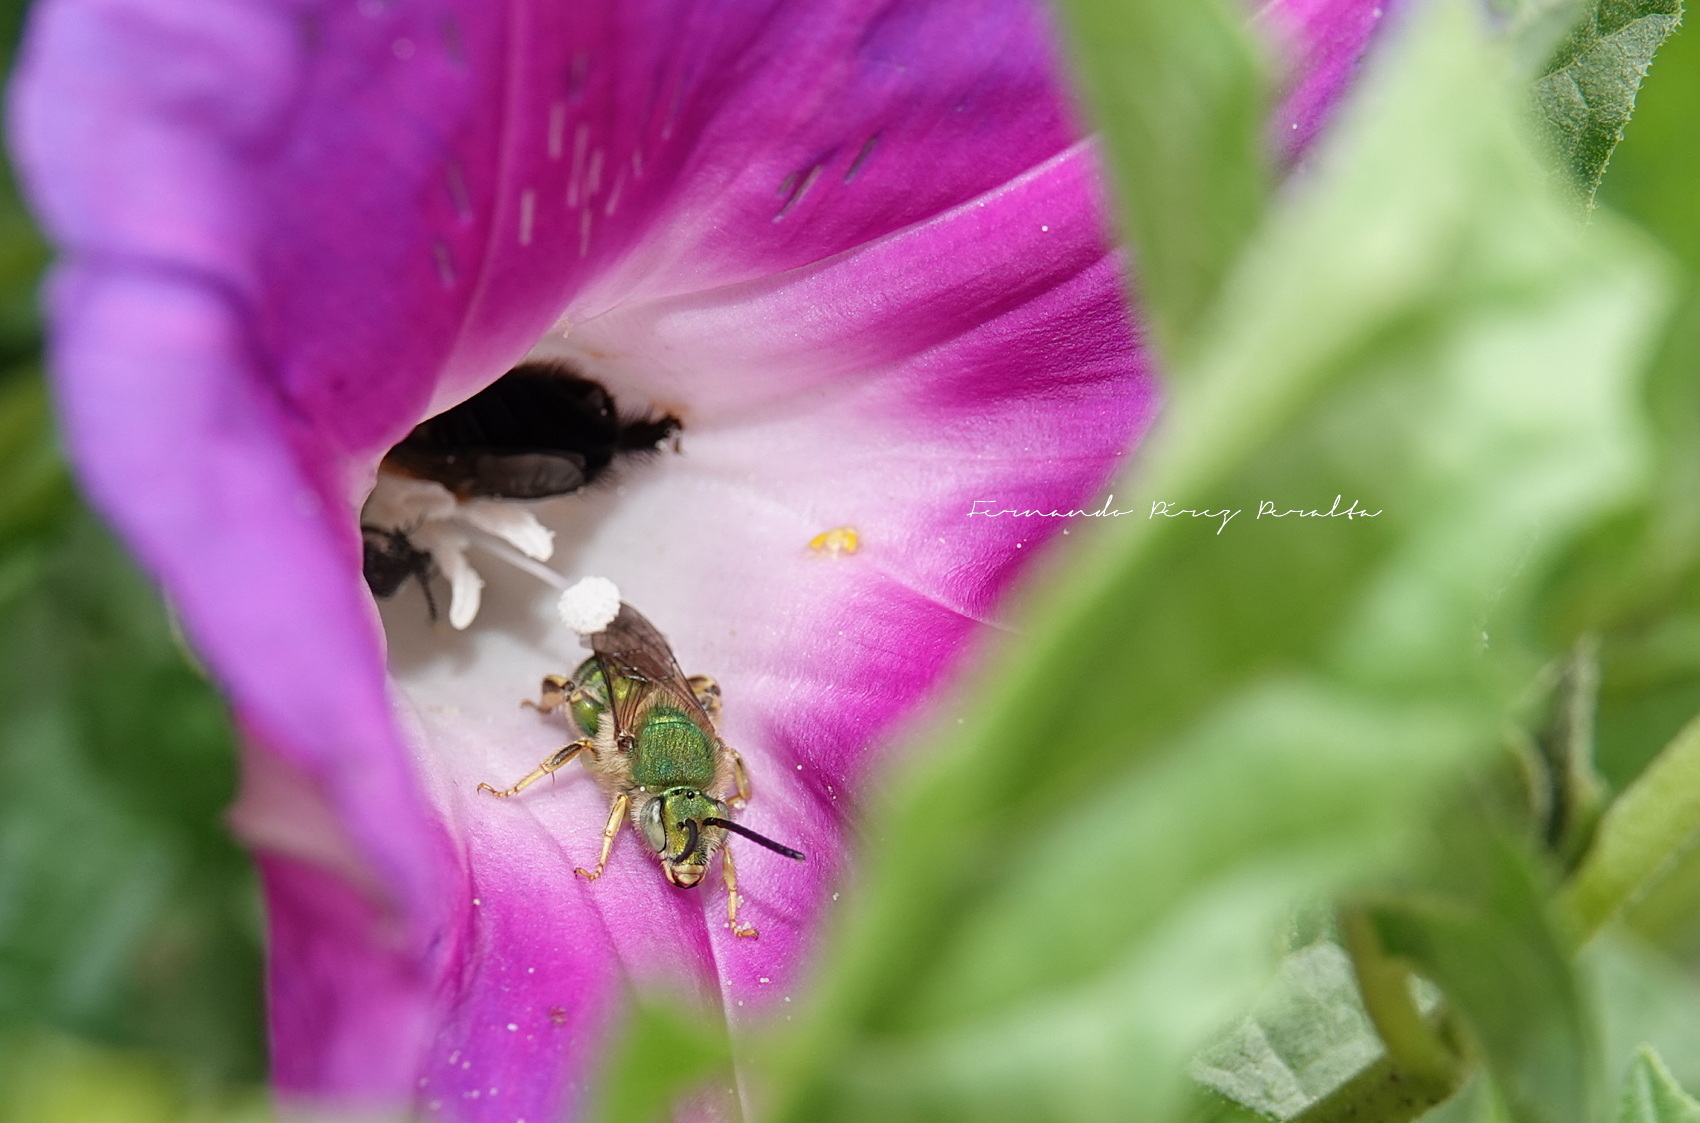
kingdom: Animalia
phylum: Arthropoda
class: Insecta
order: Hymenoptera
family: Halictidae
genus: Paragapostemon
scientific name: Paragapostemon coelestinus
